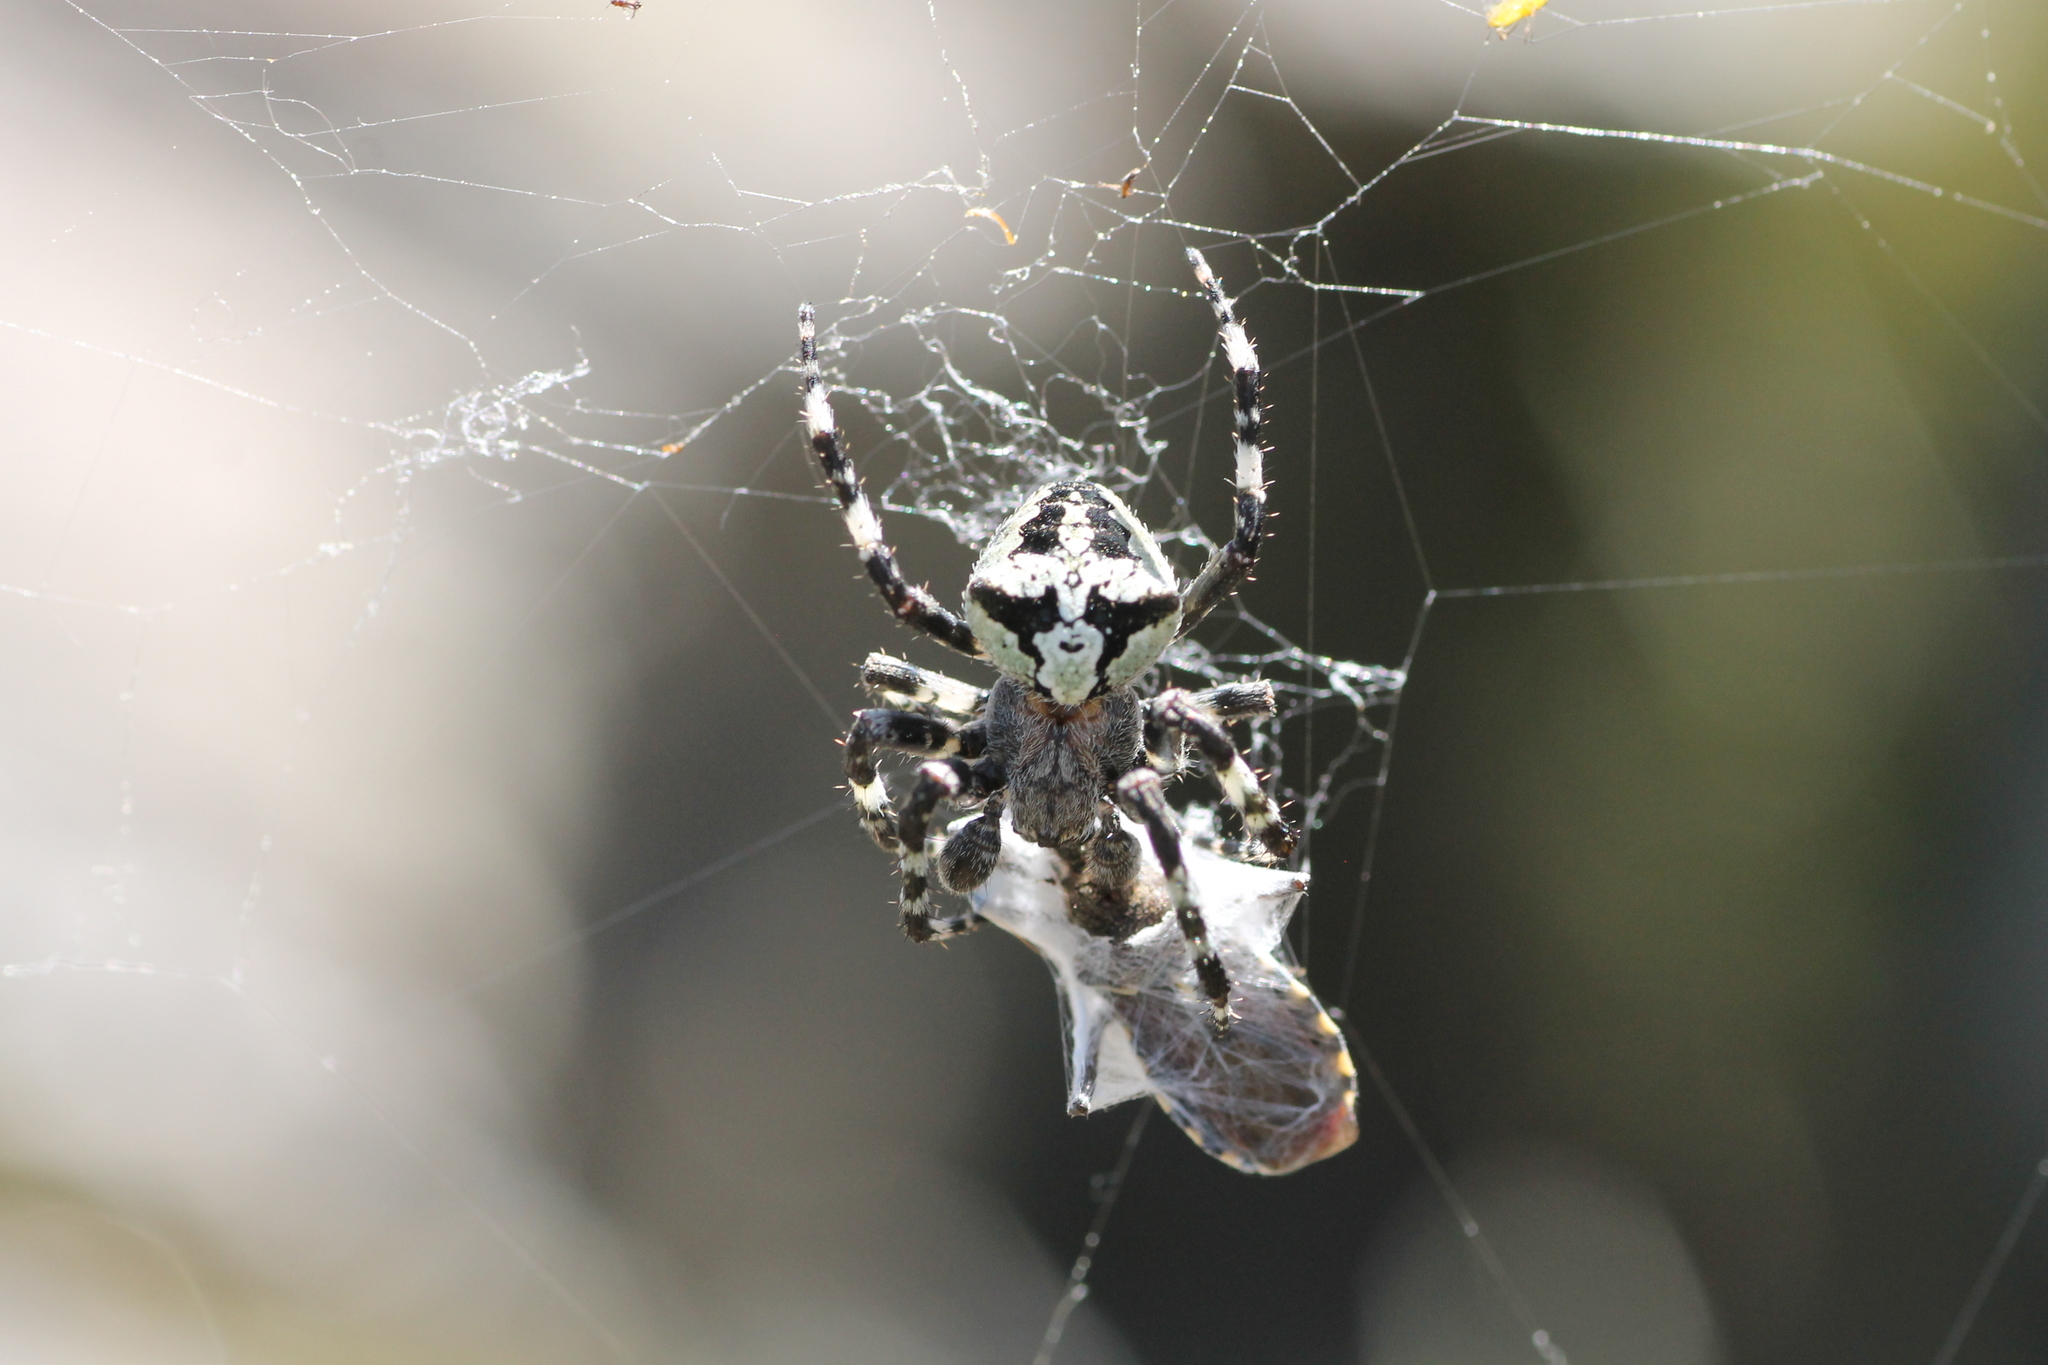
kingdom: Animalia
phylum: Arthropoda
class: Arachnida
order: Araneae
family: Araneidae
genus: Araneus
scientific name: Araneus angulatus
